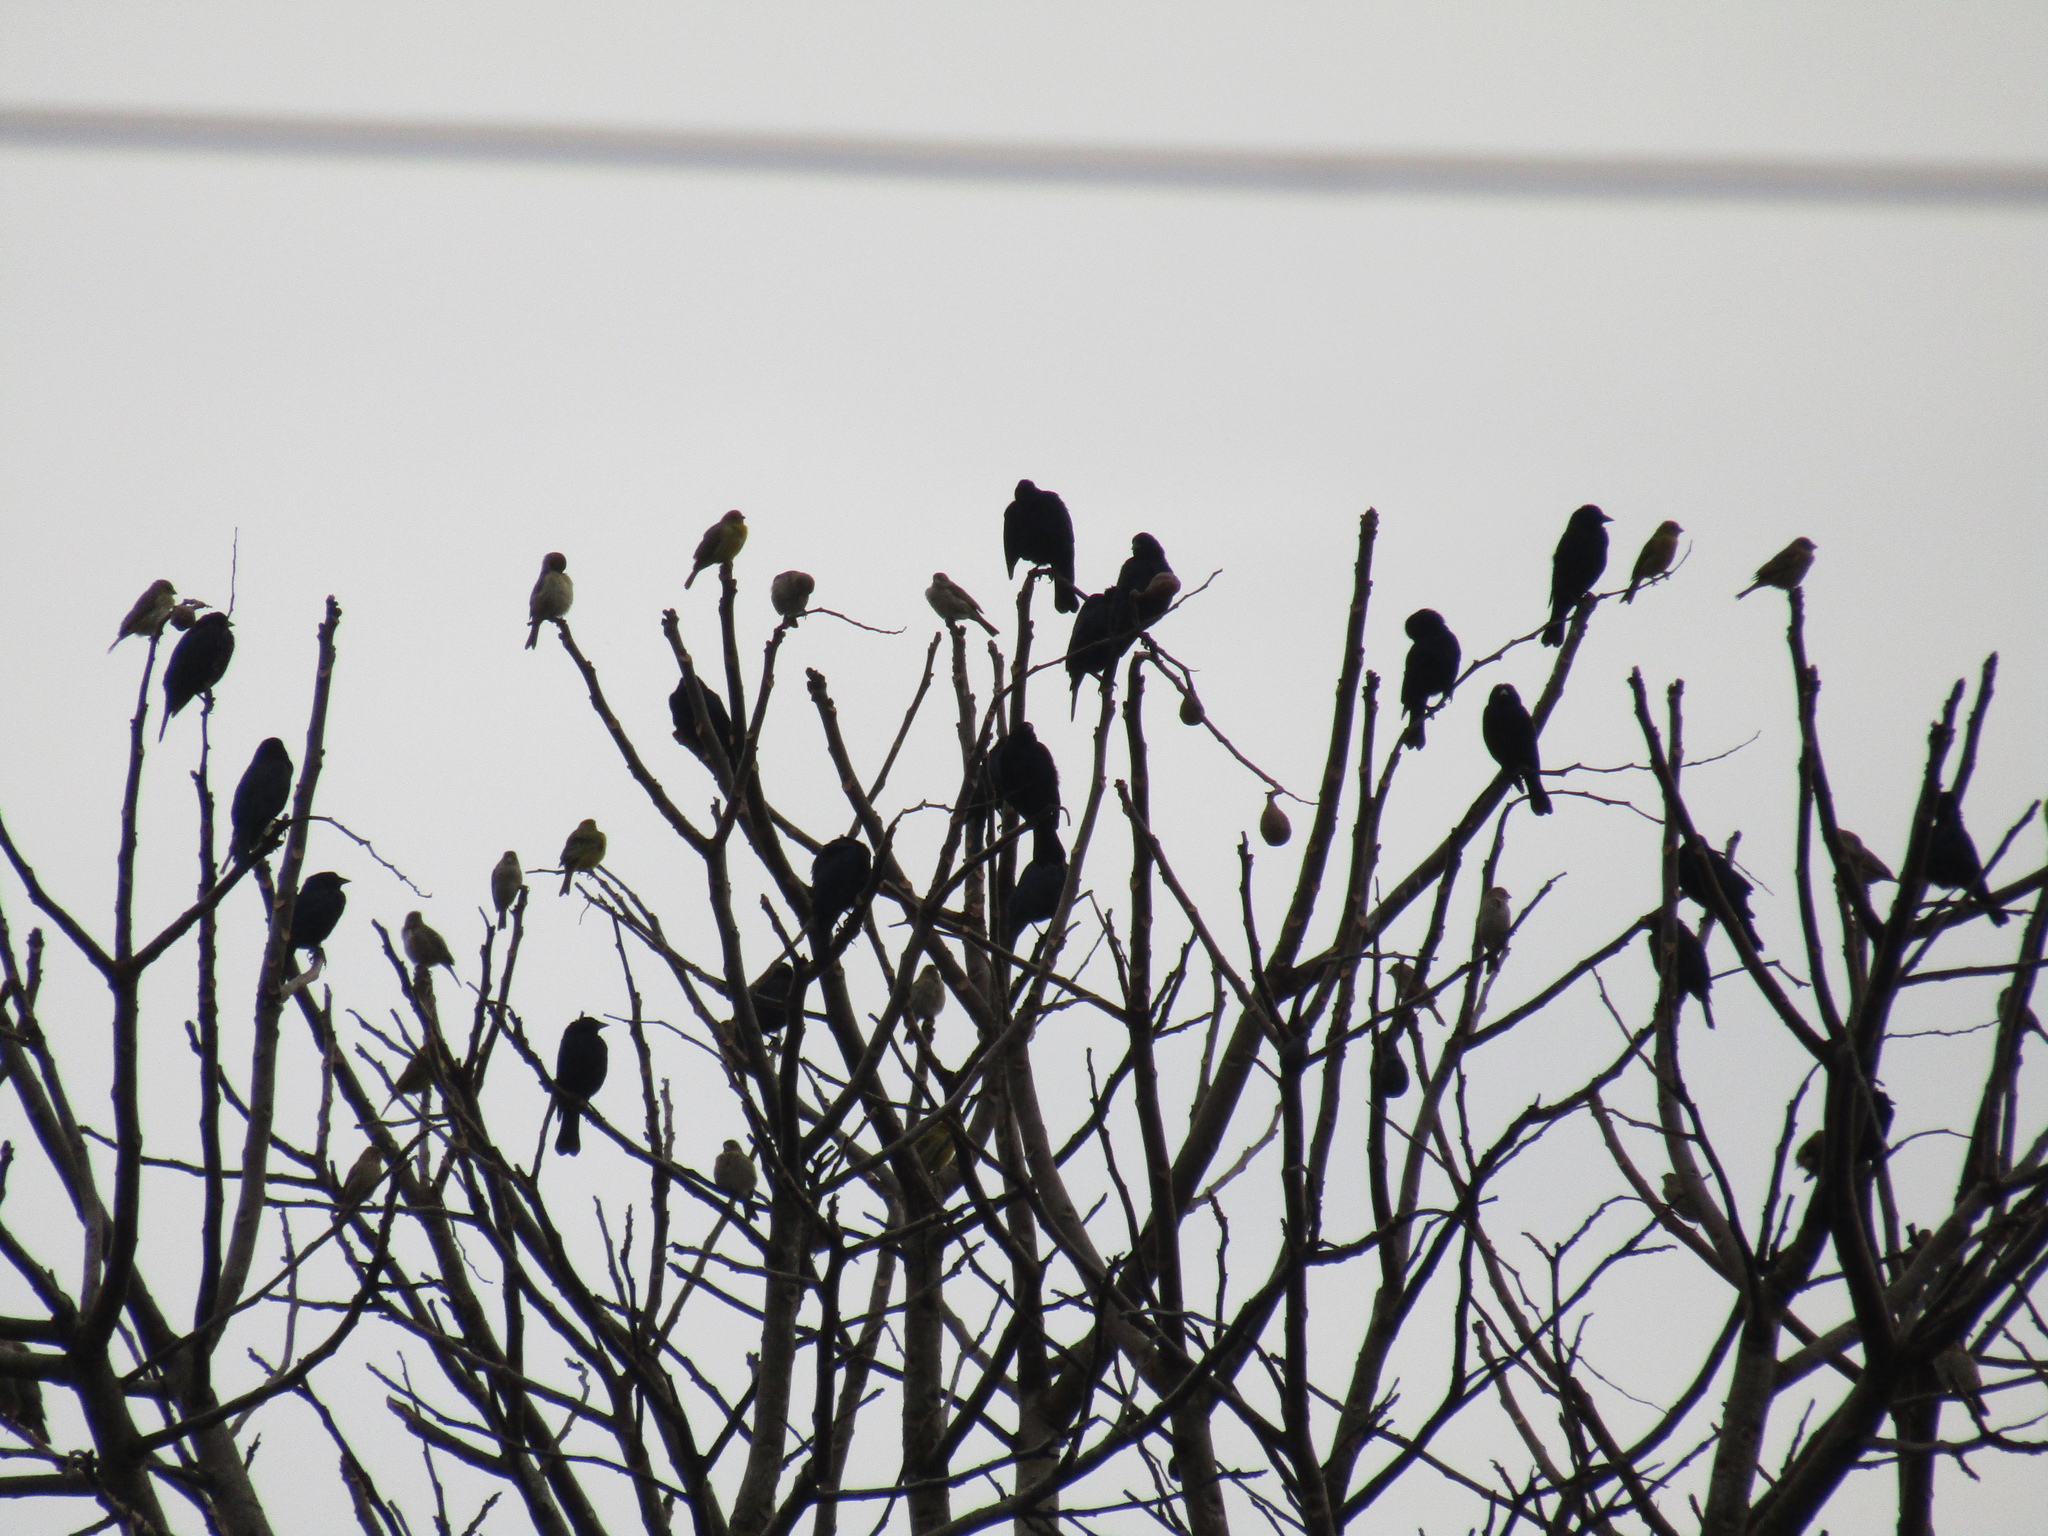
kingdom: Animalia
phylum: Chordata
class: Aves
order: Passeriformes
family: Icteridae
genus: Gnorimopsar
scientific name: Gnorimopsar chopi
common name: Chopi blackbird
